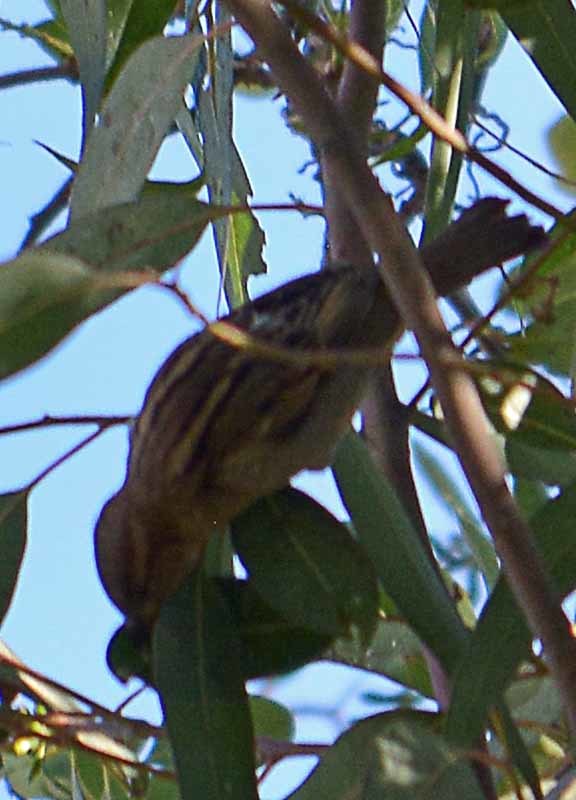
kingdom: Animalia
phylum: Chordata
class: Aves
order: Passeriformes
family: Passeridae
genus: Passer
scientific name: Passer domesticus
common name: House sparrow
